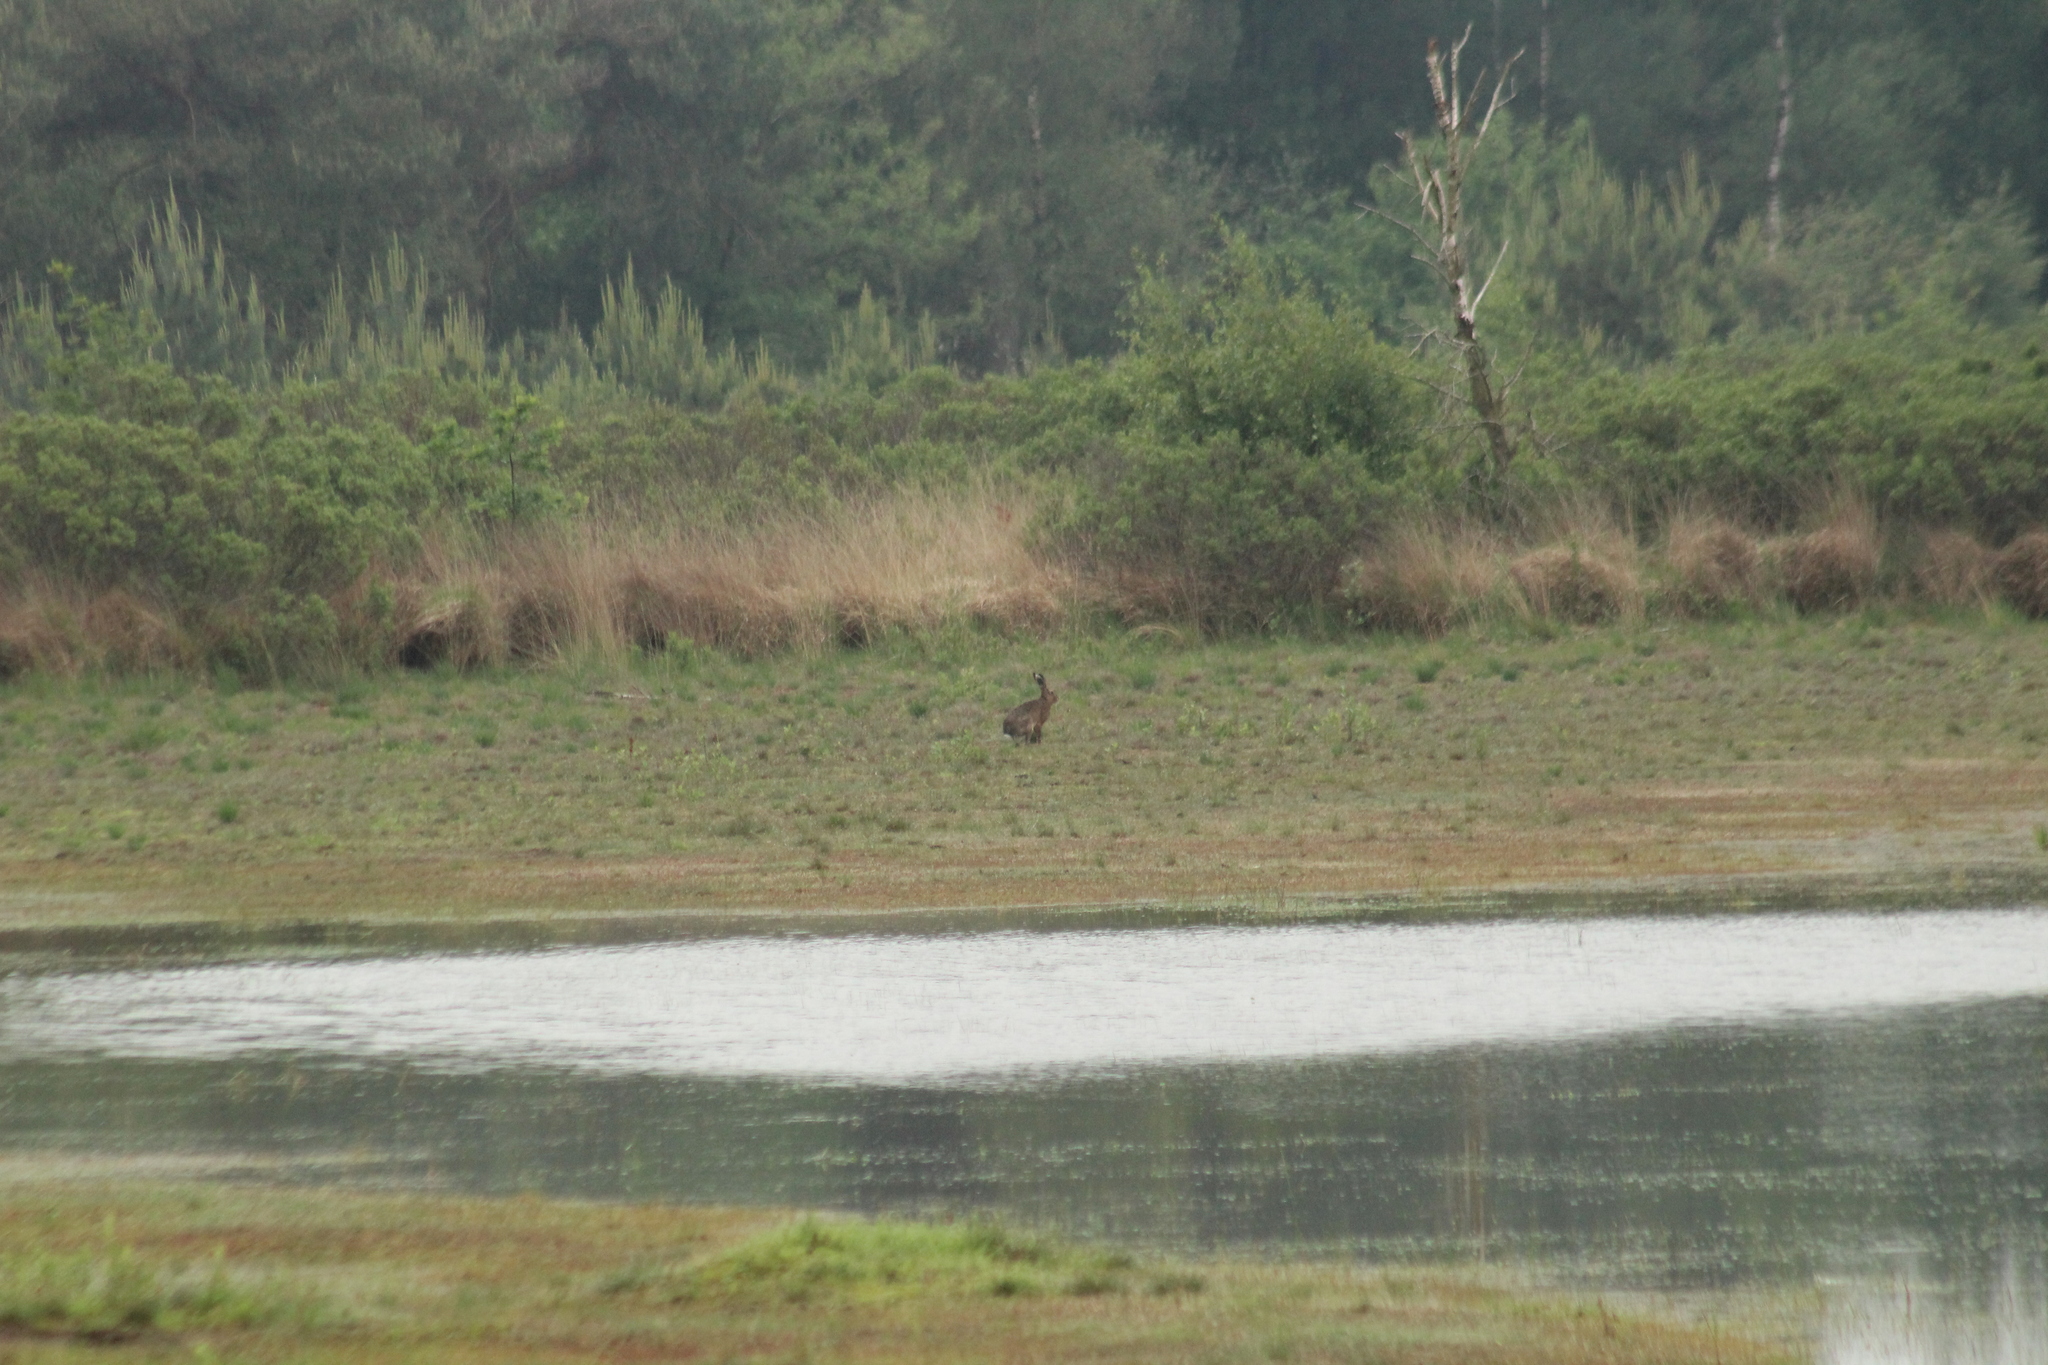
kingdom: Animalia
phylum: Chordata
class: Mammalia
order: Lagomorpha
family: Leporidae
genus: Lepus
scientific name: Lepus europaeus
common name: European hare
